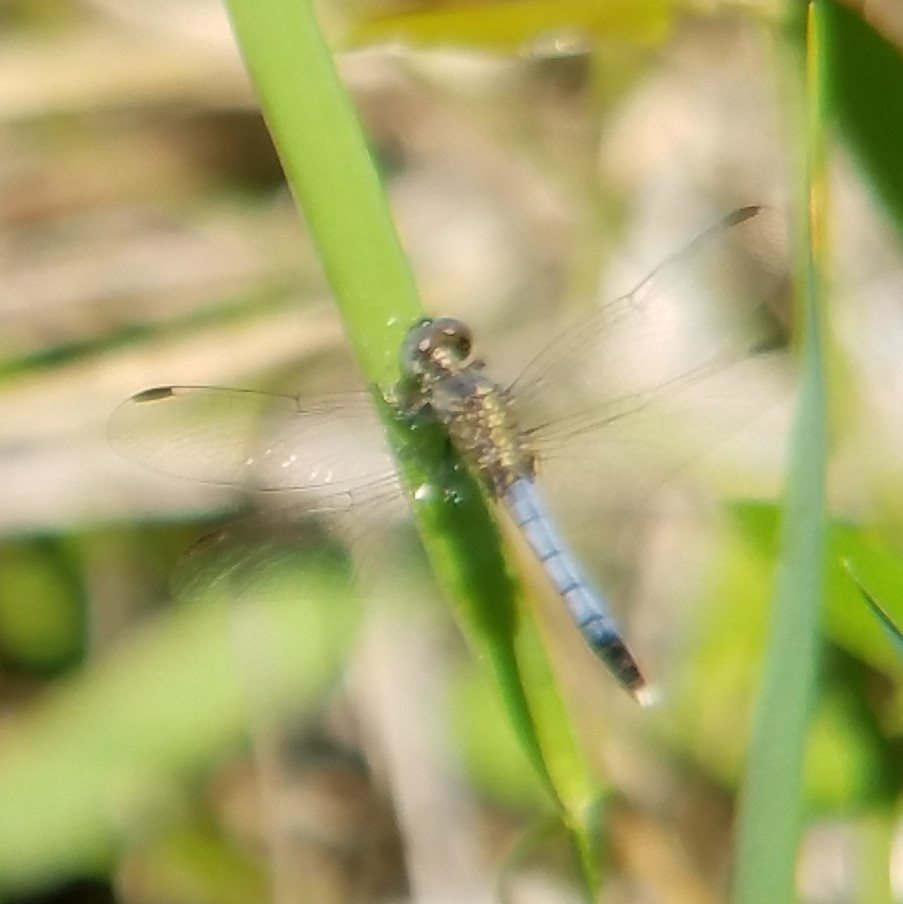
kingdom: Animalia
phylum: Arthropoda
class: Insecta
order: Odonata
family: Libellulidae
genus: Erythrodiplax
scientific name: Erythrodiplax minuscula
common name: Little blue dragonlet
